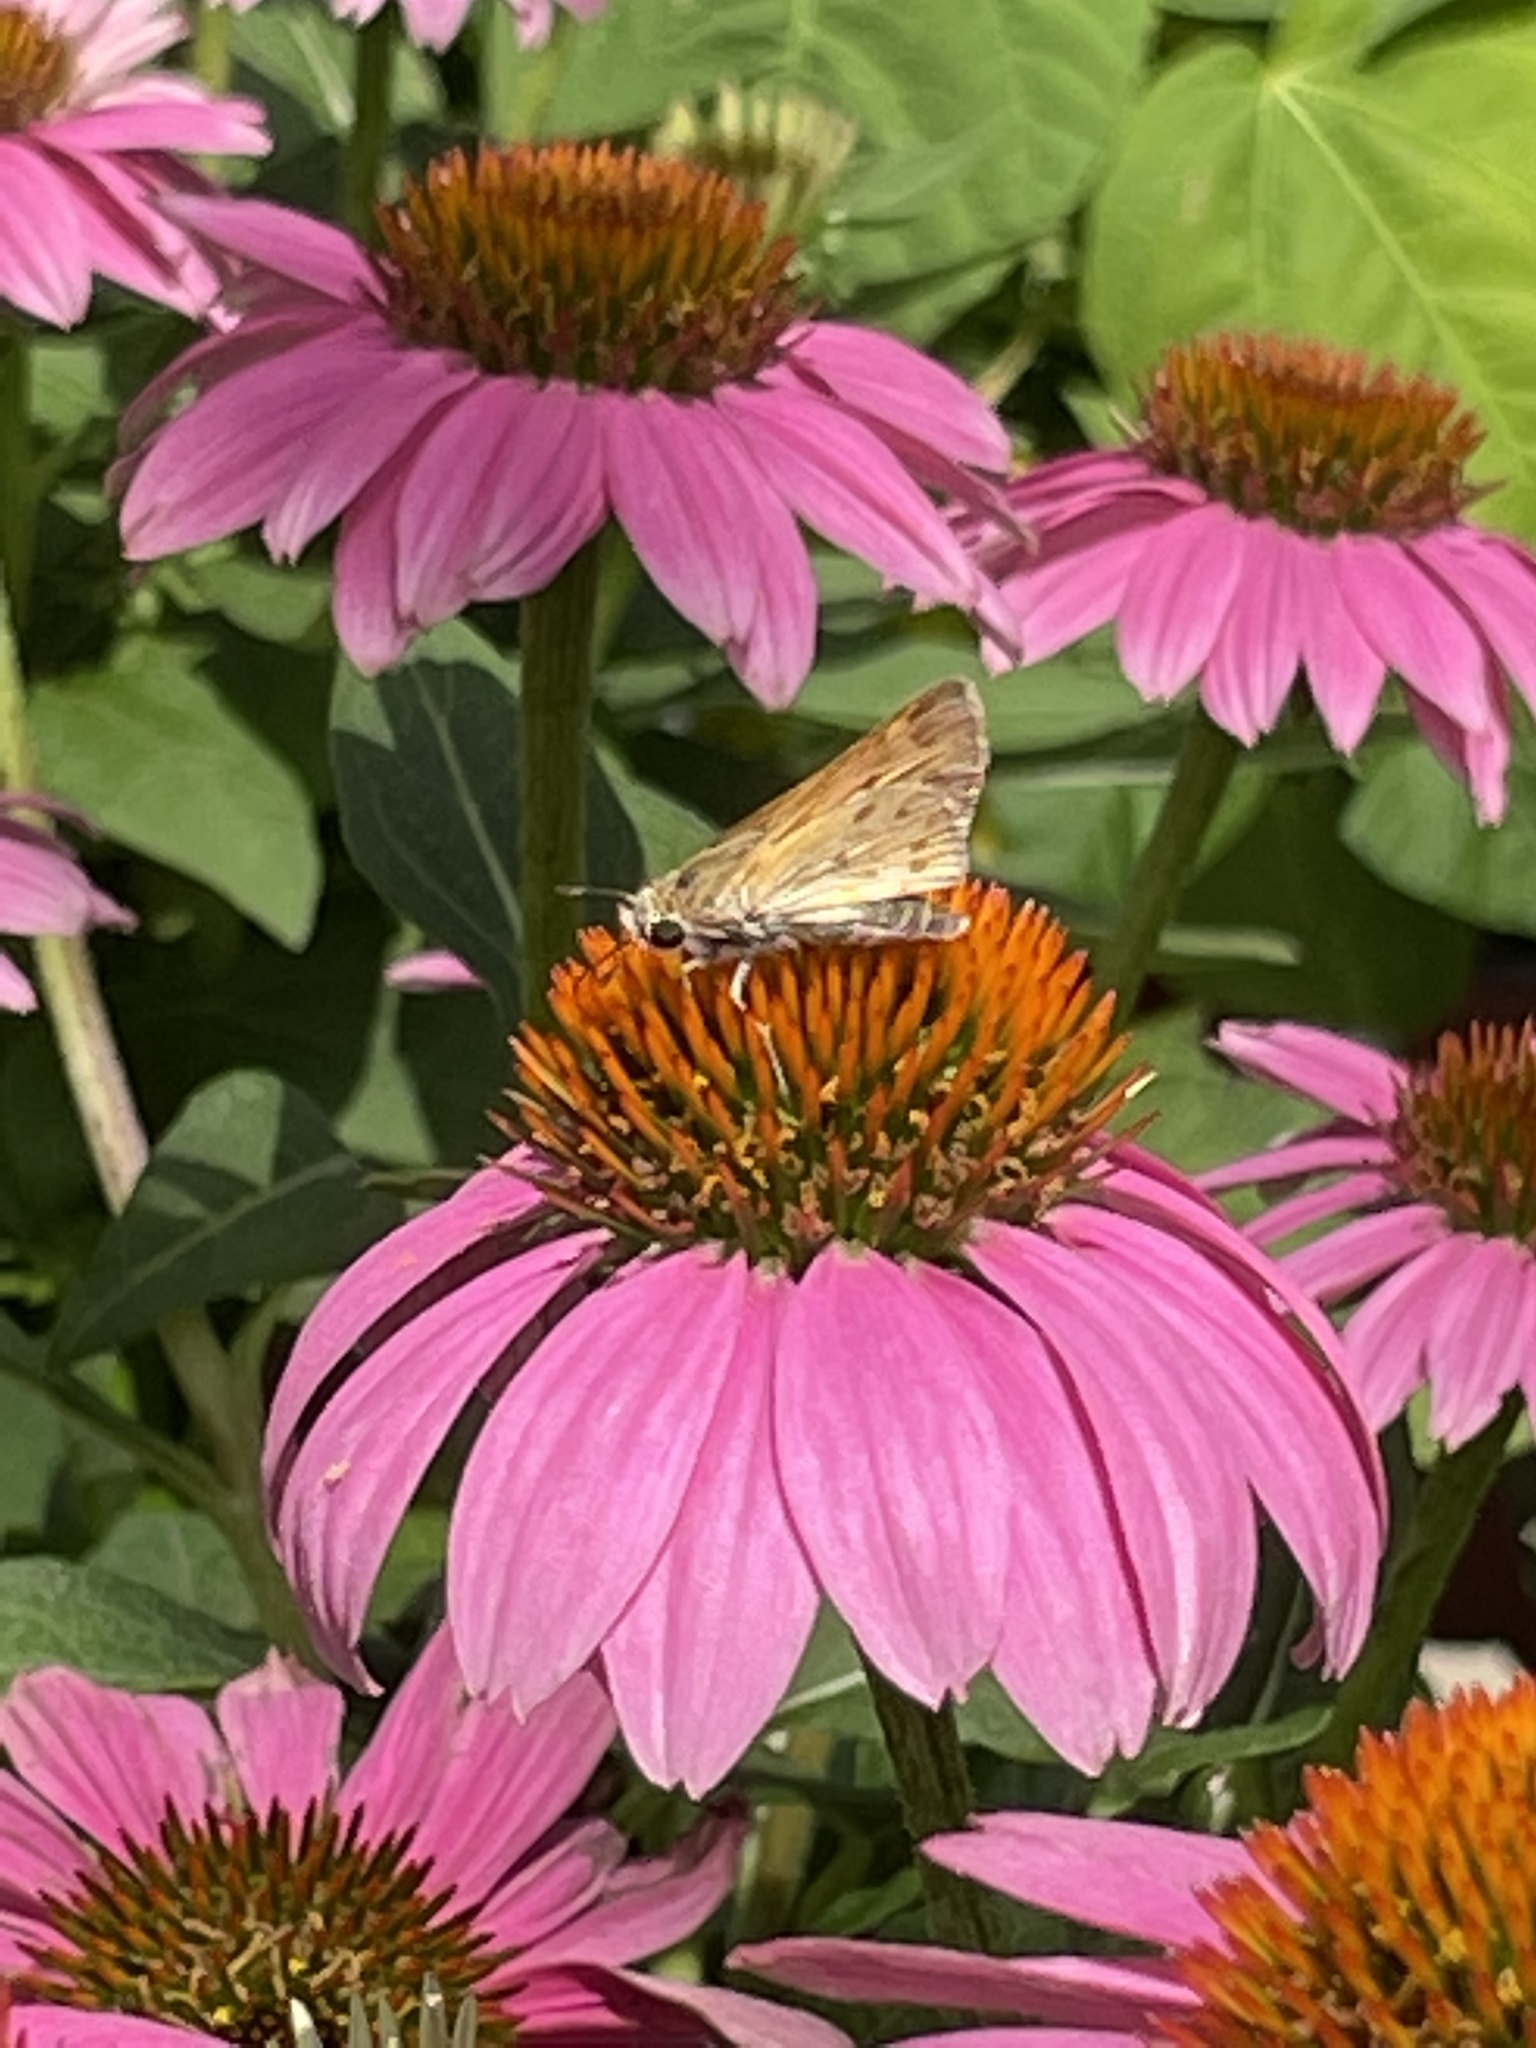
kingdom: Animalia
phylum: Arthropoda
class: Insecta
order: Lepidoptera
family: Hesperiidae
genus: Hylephila
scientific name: Hylephila phyleus
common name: Fiery skipper
